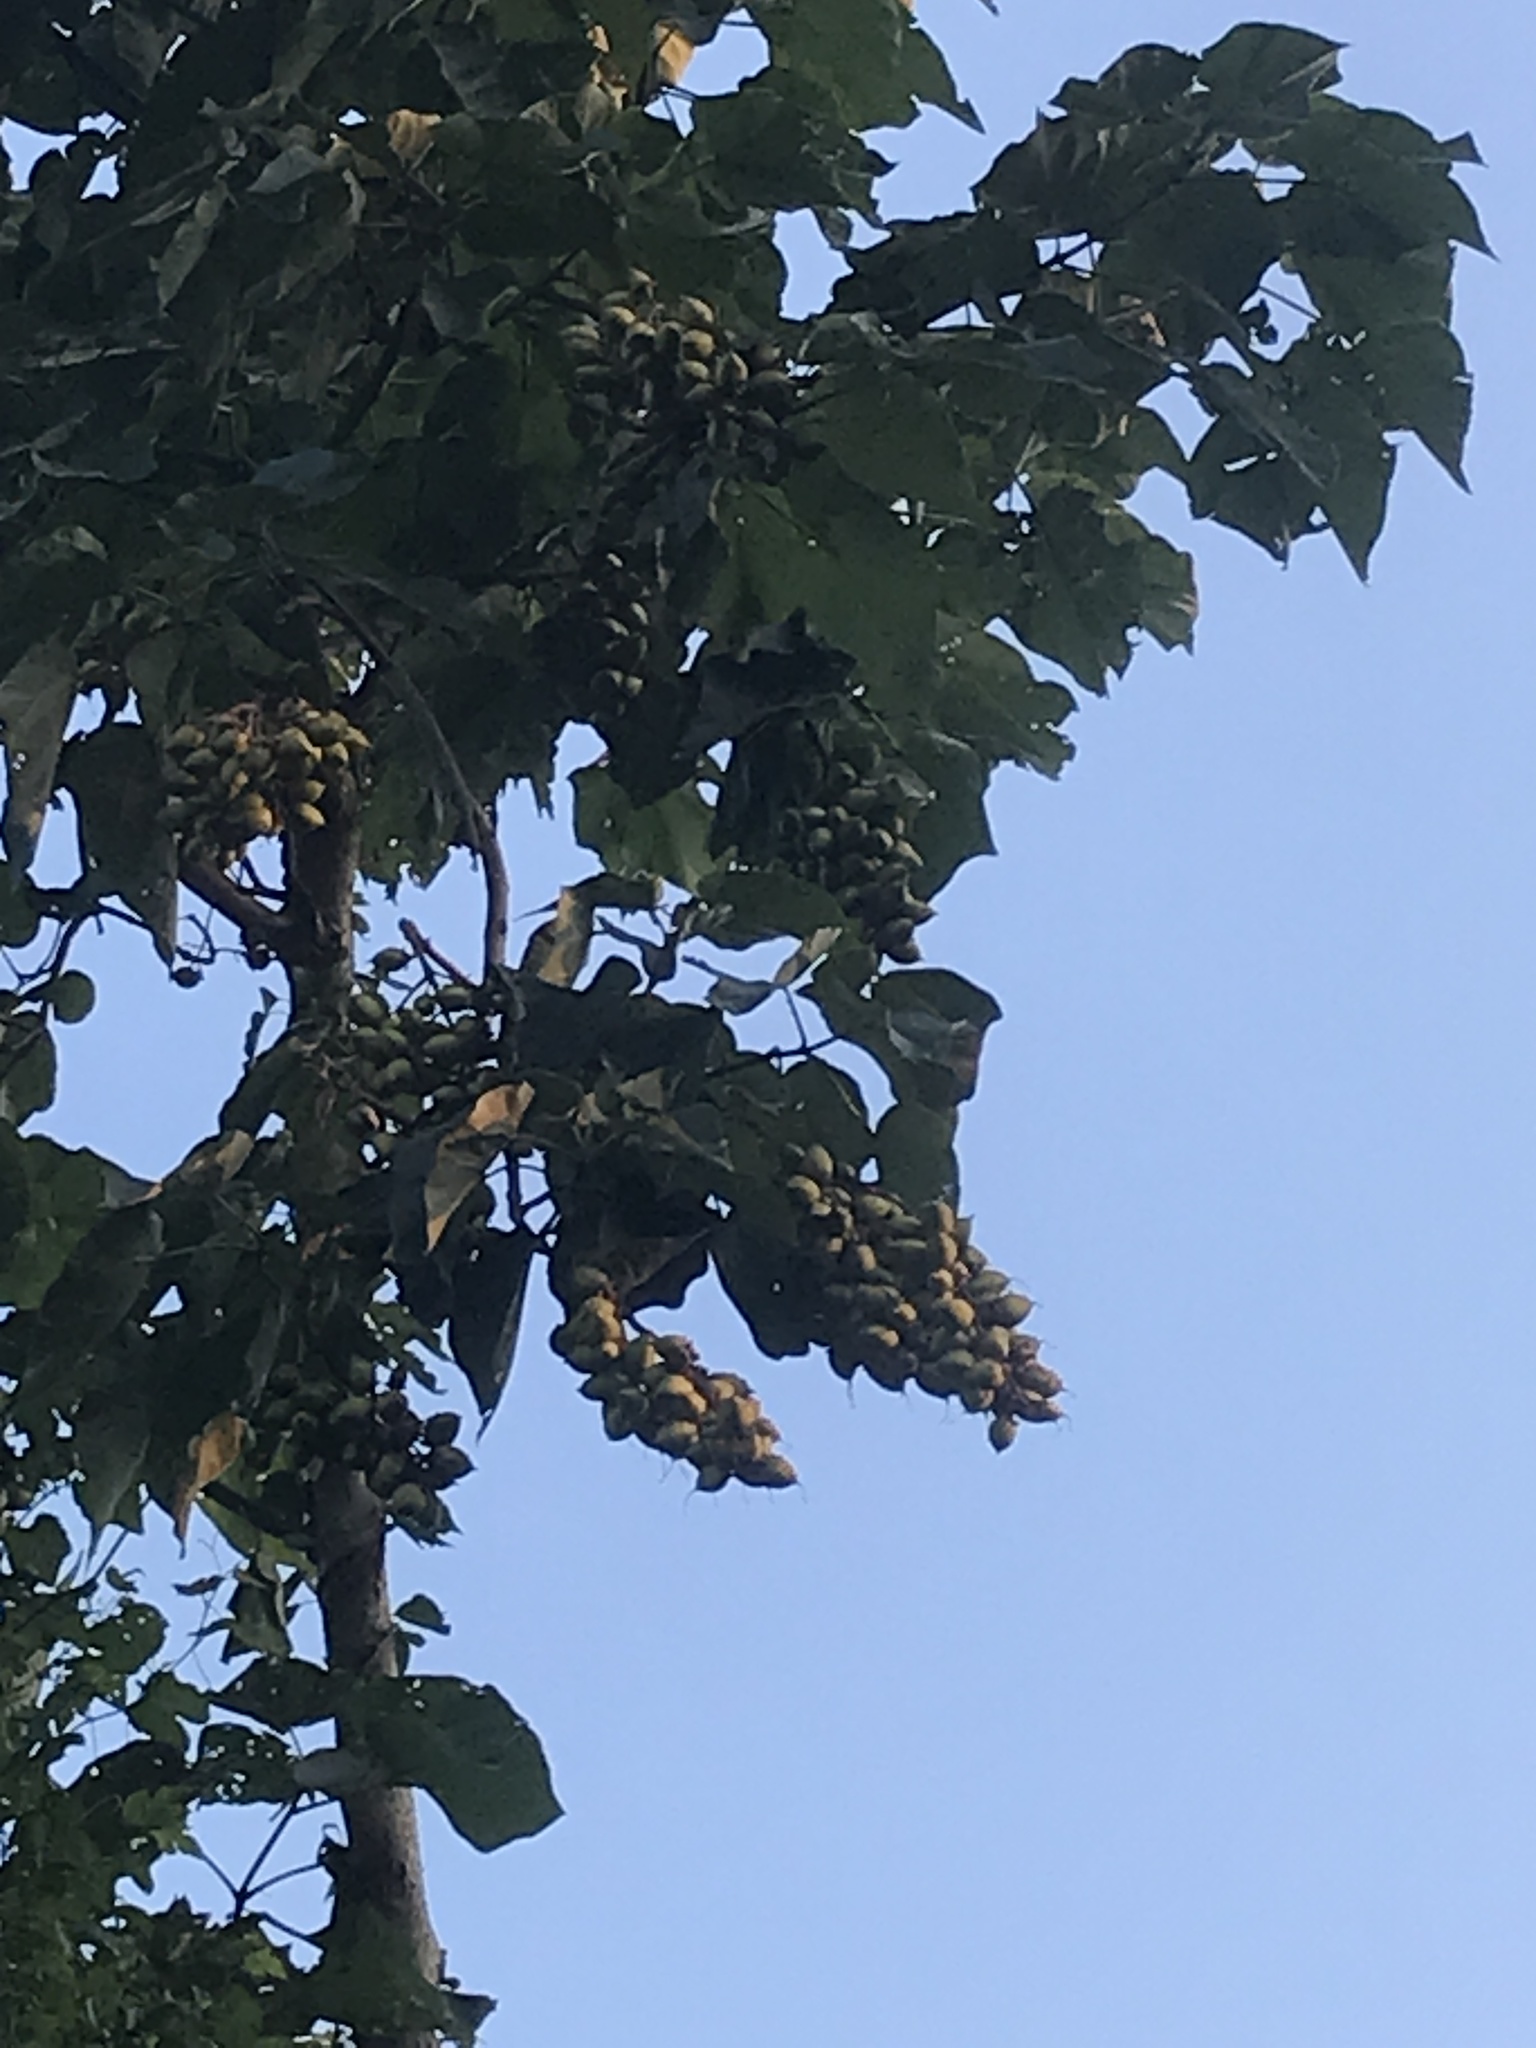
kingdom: Plantae
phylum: Tracheophyta
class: Magnoliopsida
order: Lamiales
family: Paulowniaceae
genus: Paulownia
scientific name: Paulownia tomentosa
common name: Foxglove-tree
